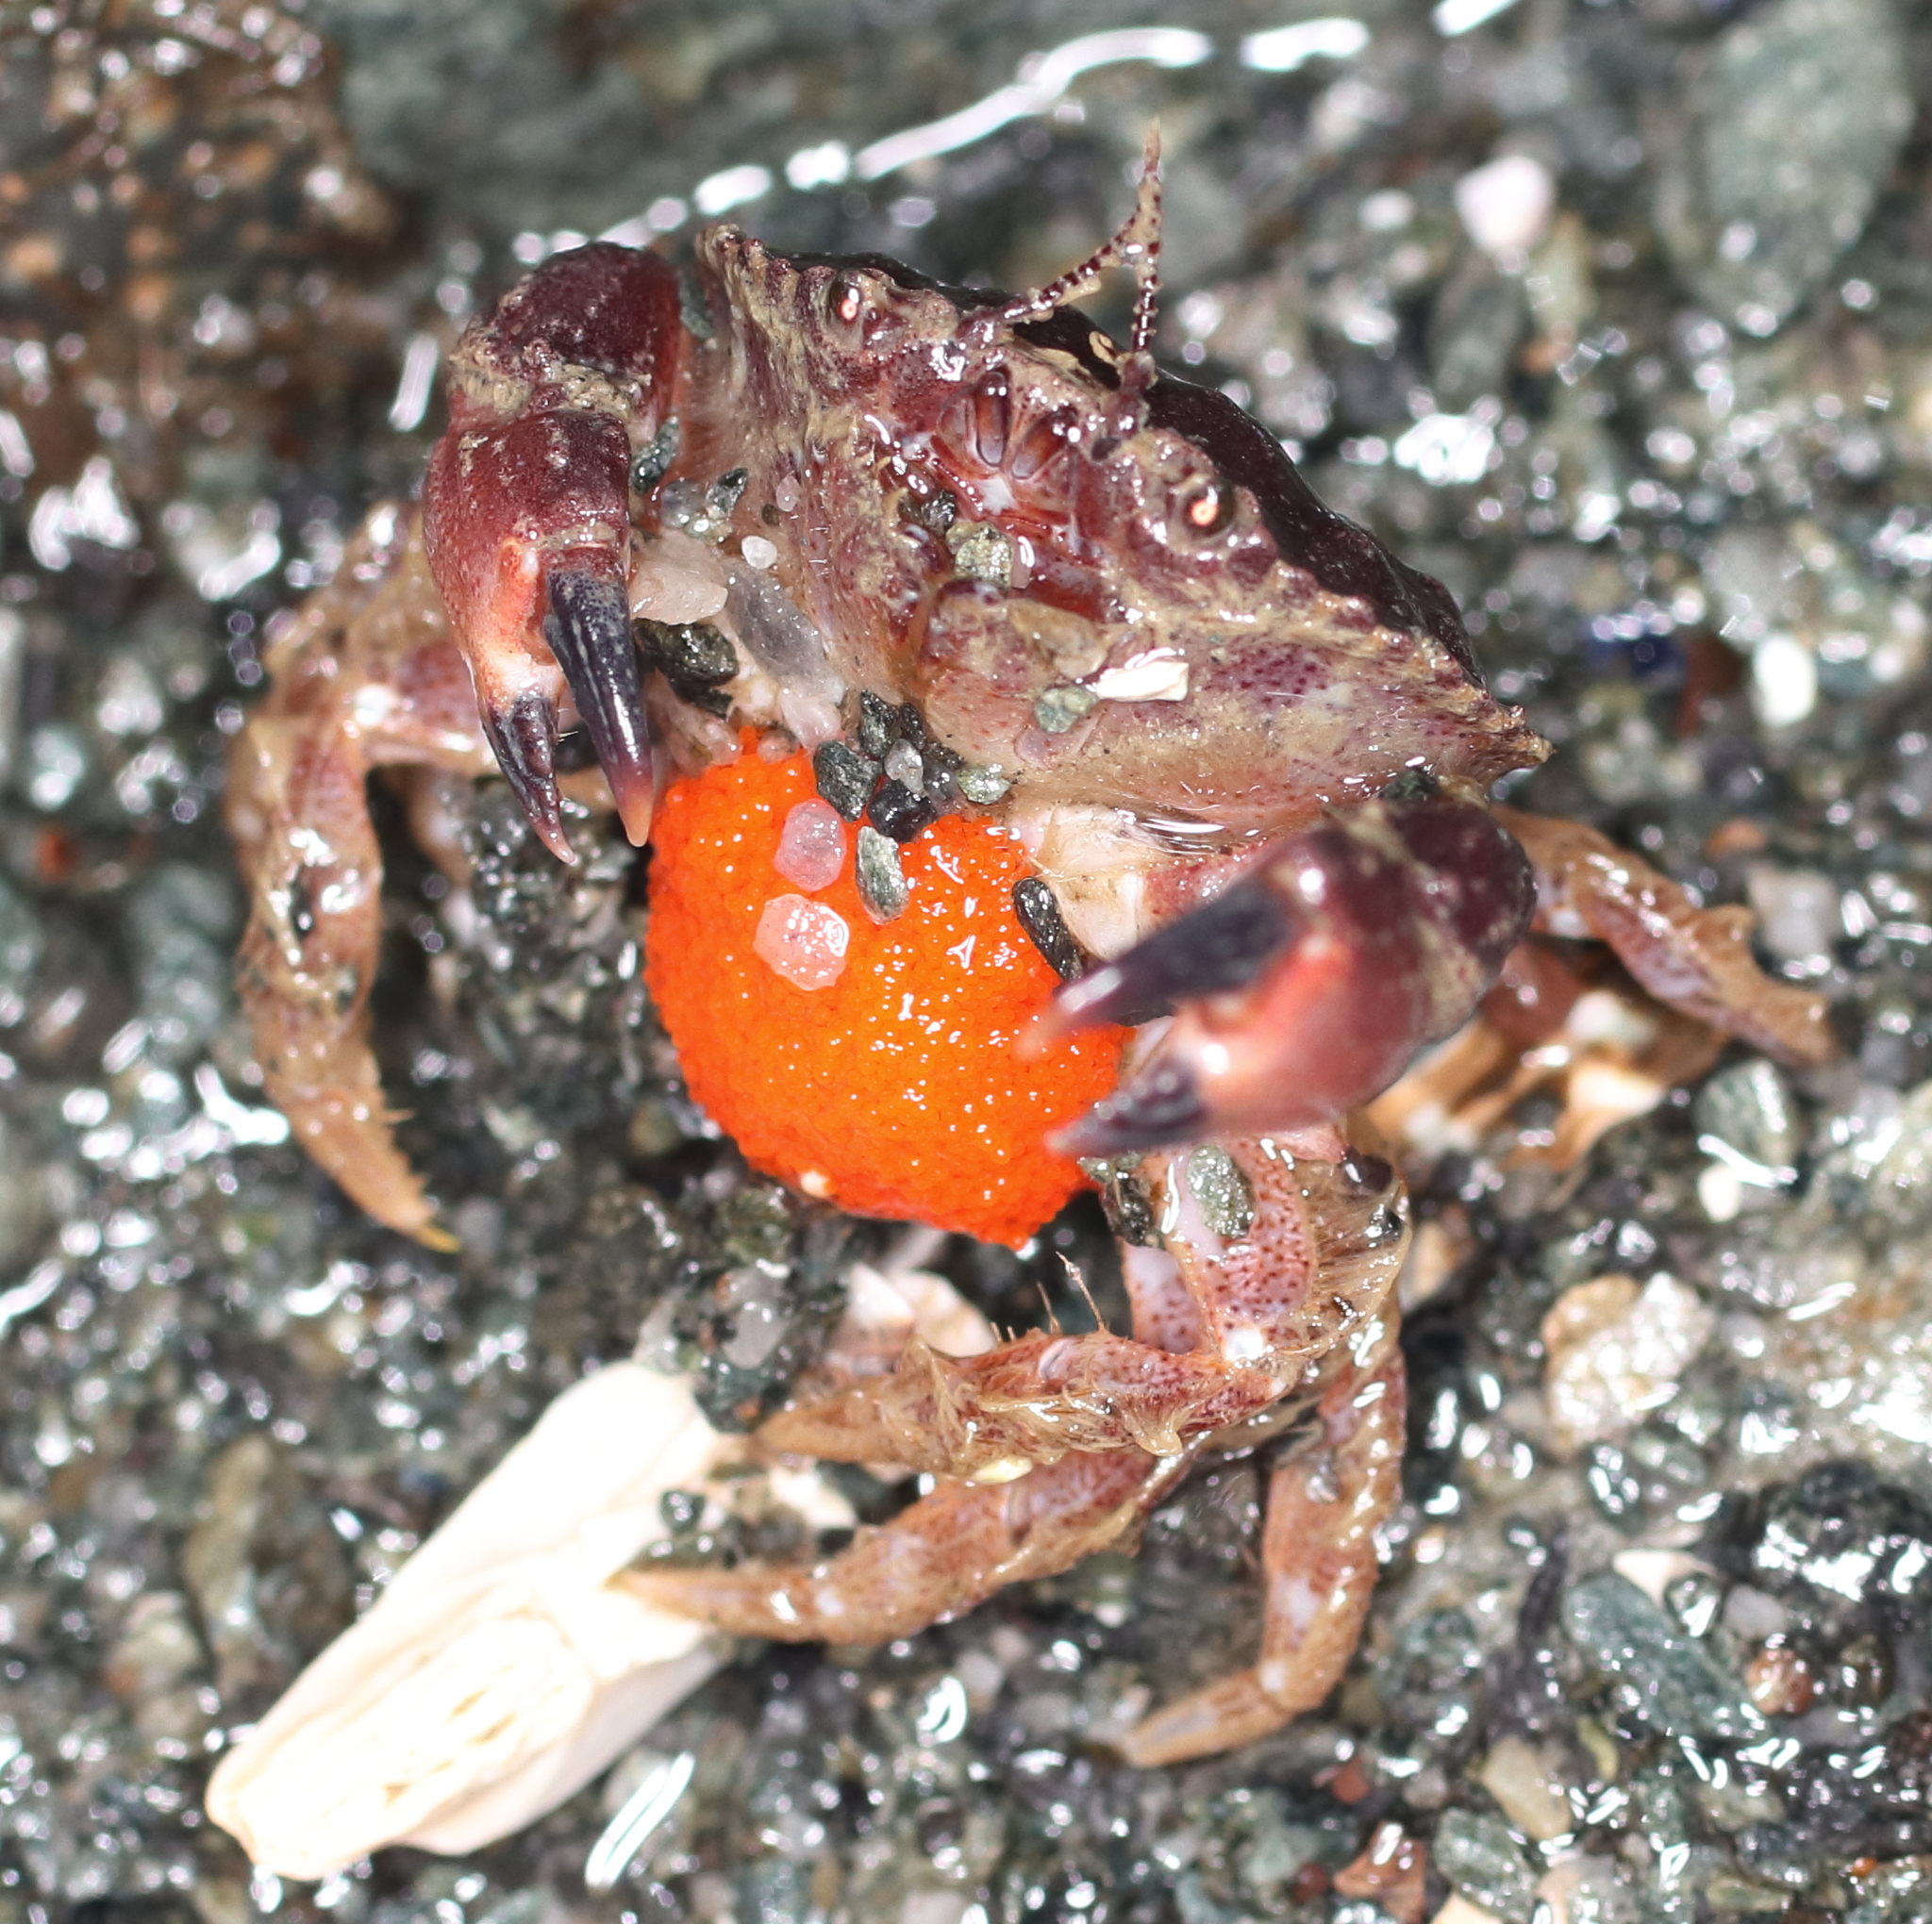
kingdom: Animalia
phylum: Arthropoda
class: Malacostraca
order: Decapoda
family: Cancridae
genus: Glebocarcinus
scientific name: Glebocarcinus oregonensis
